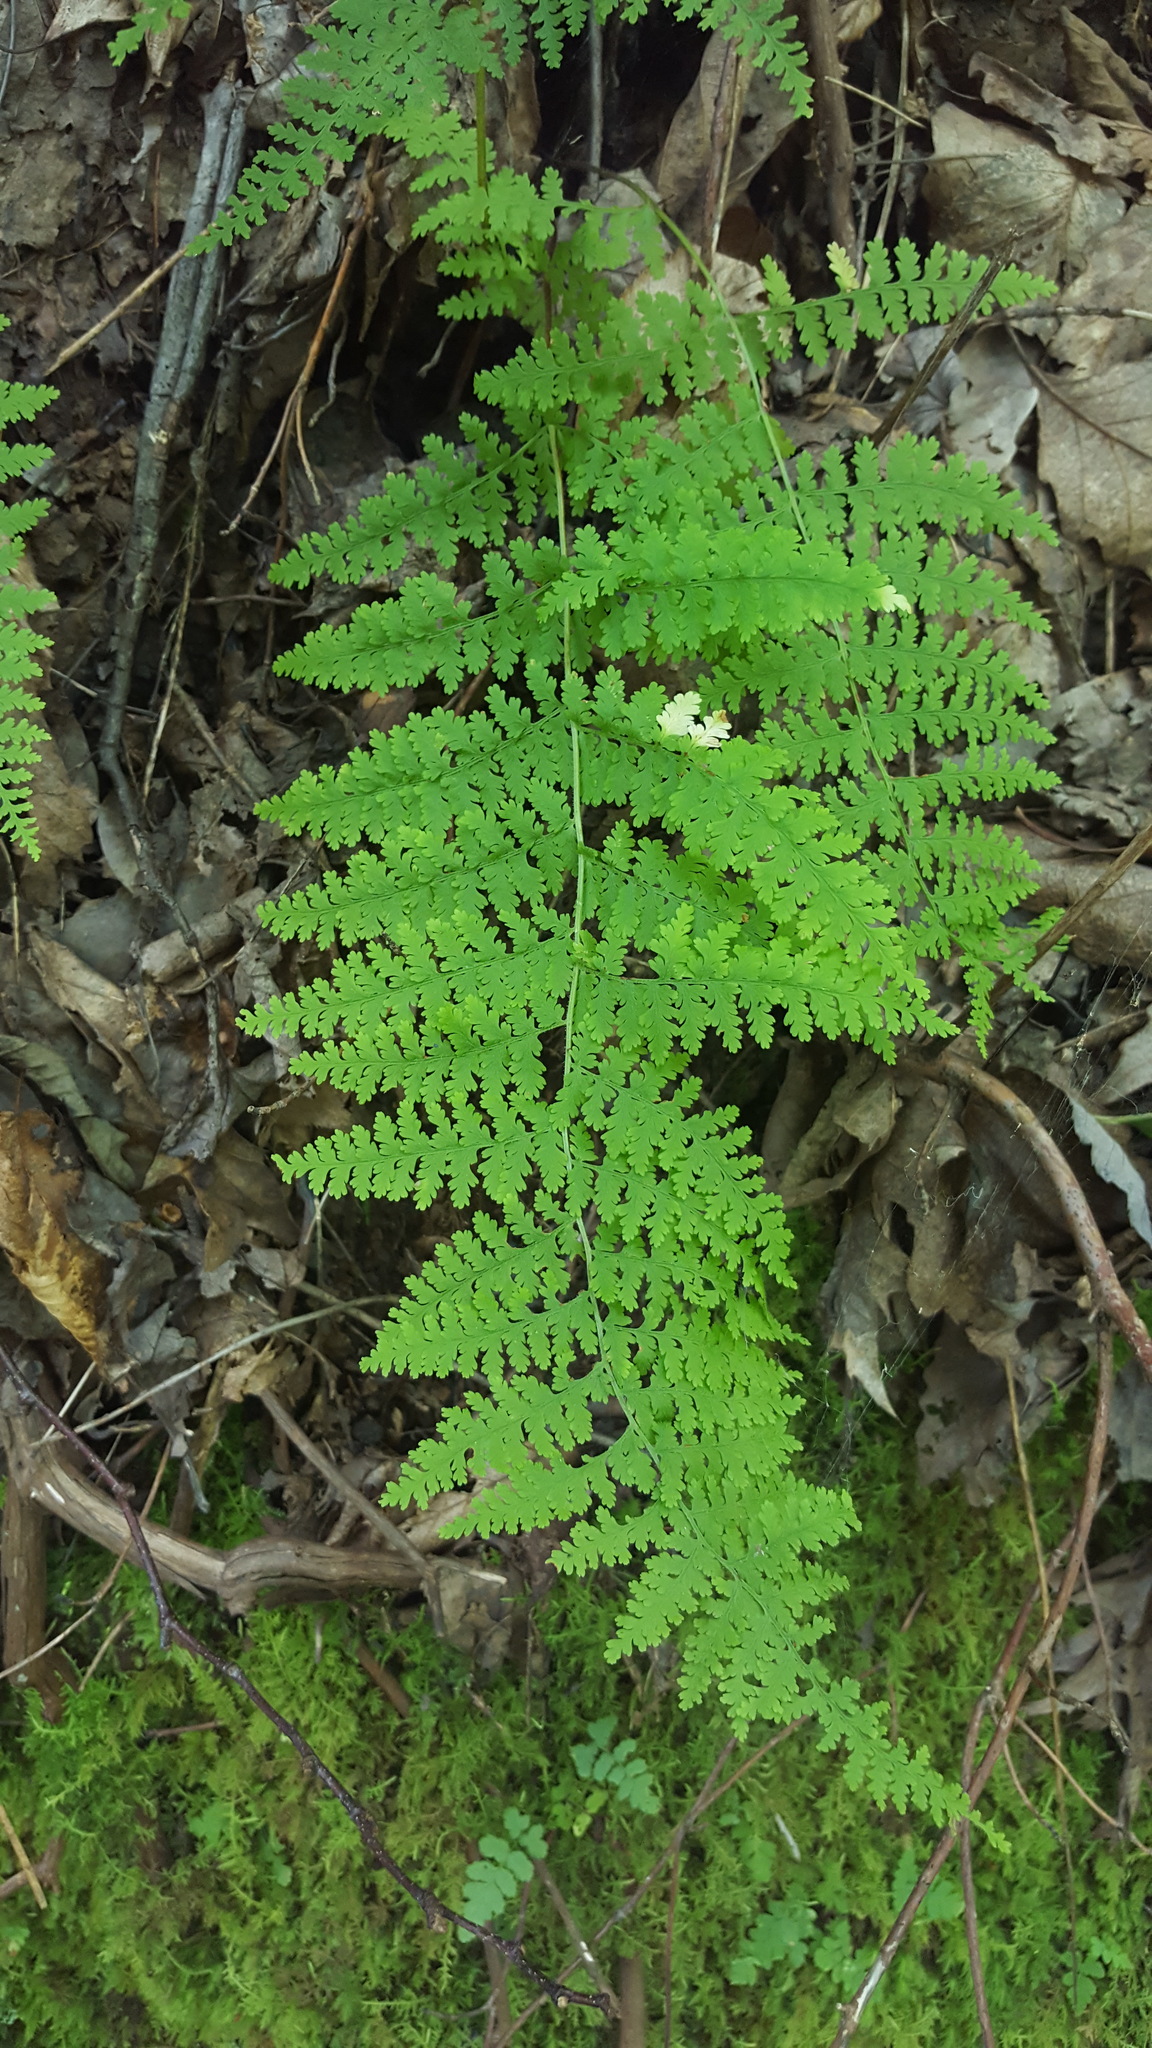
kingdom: Plantae
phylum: Tracheophyta
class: Polypodiopsida
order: Polypodiales
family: Dennstaedtiaceae
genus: Sitobolium
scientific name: Sitobolium punctilobum
